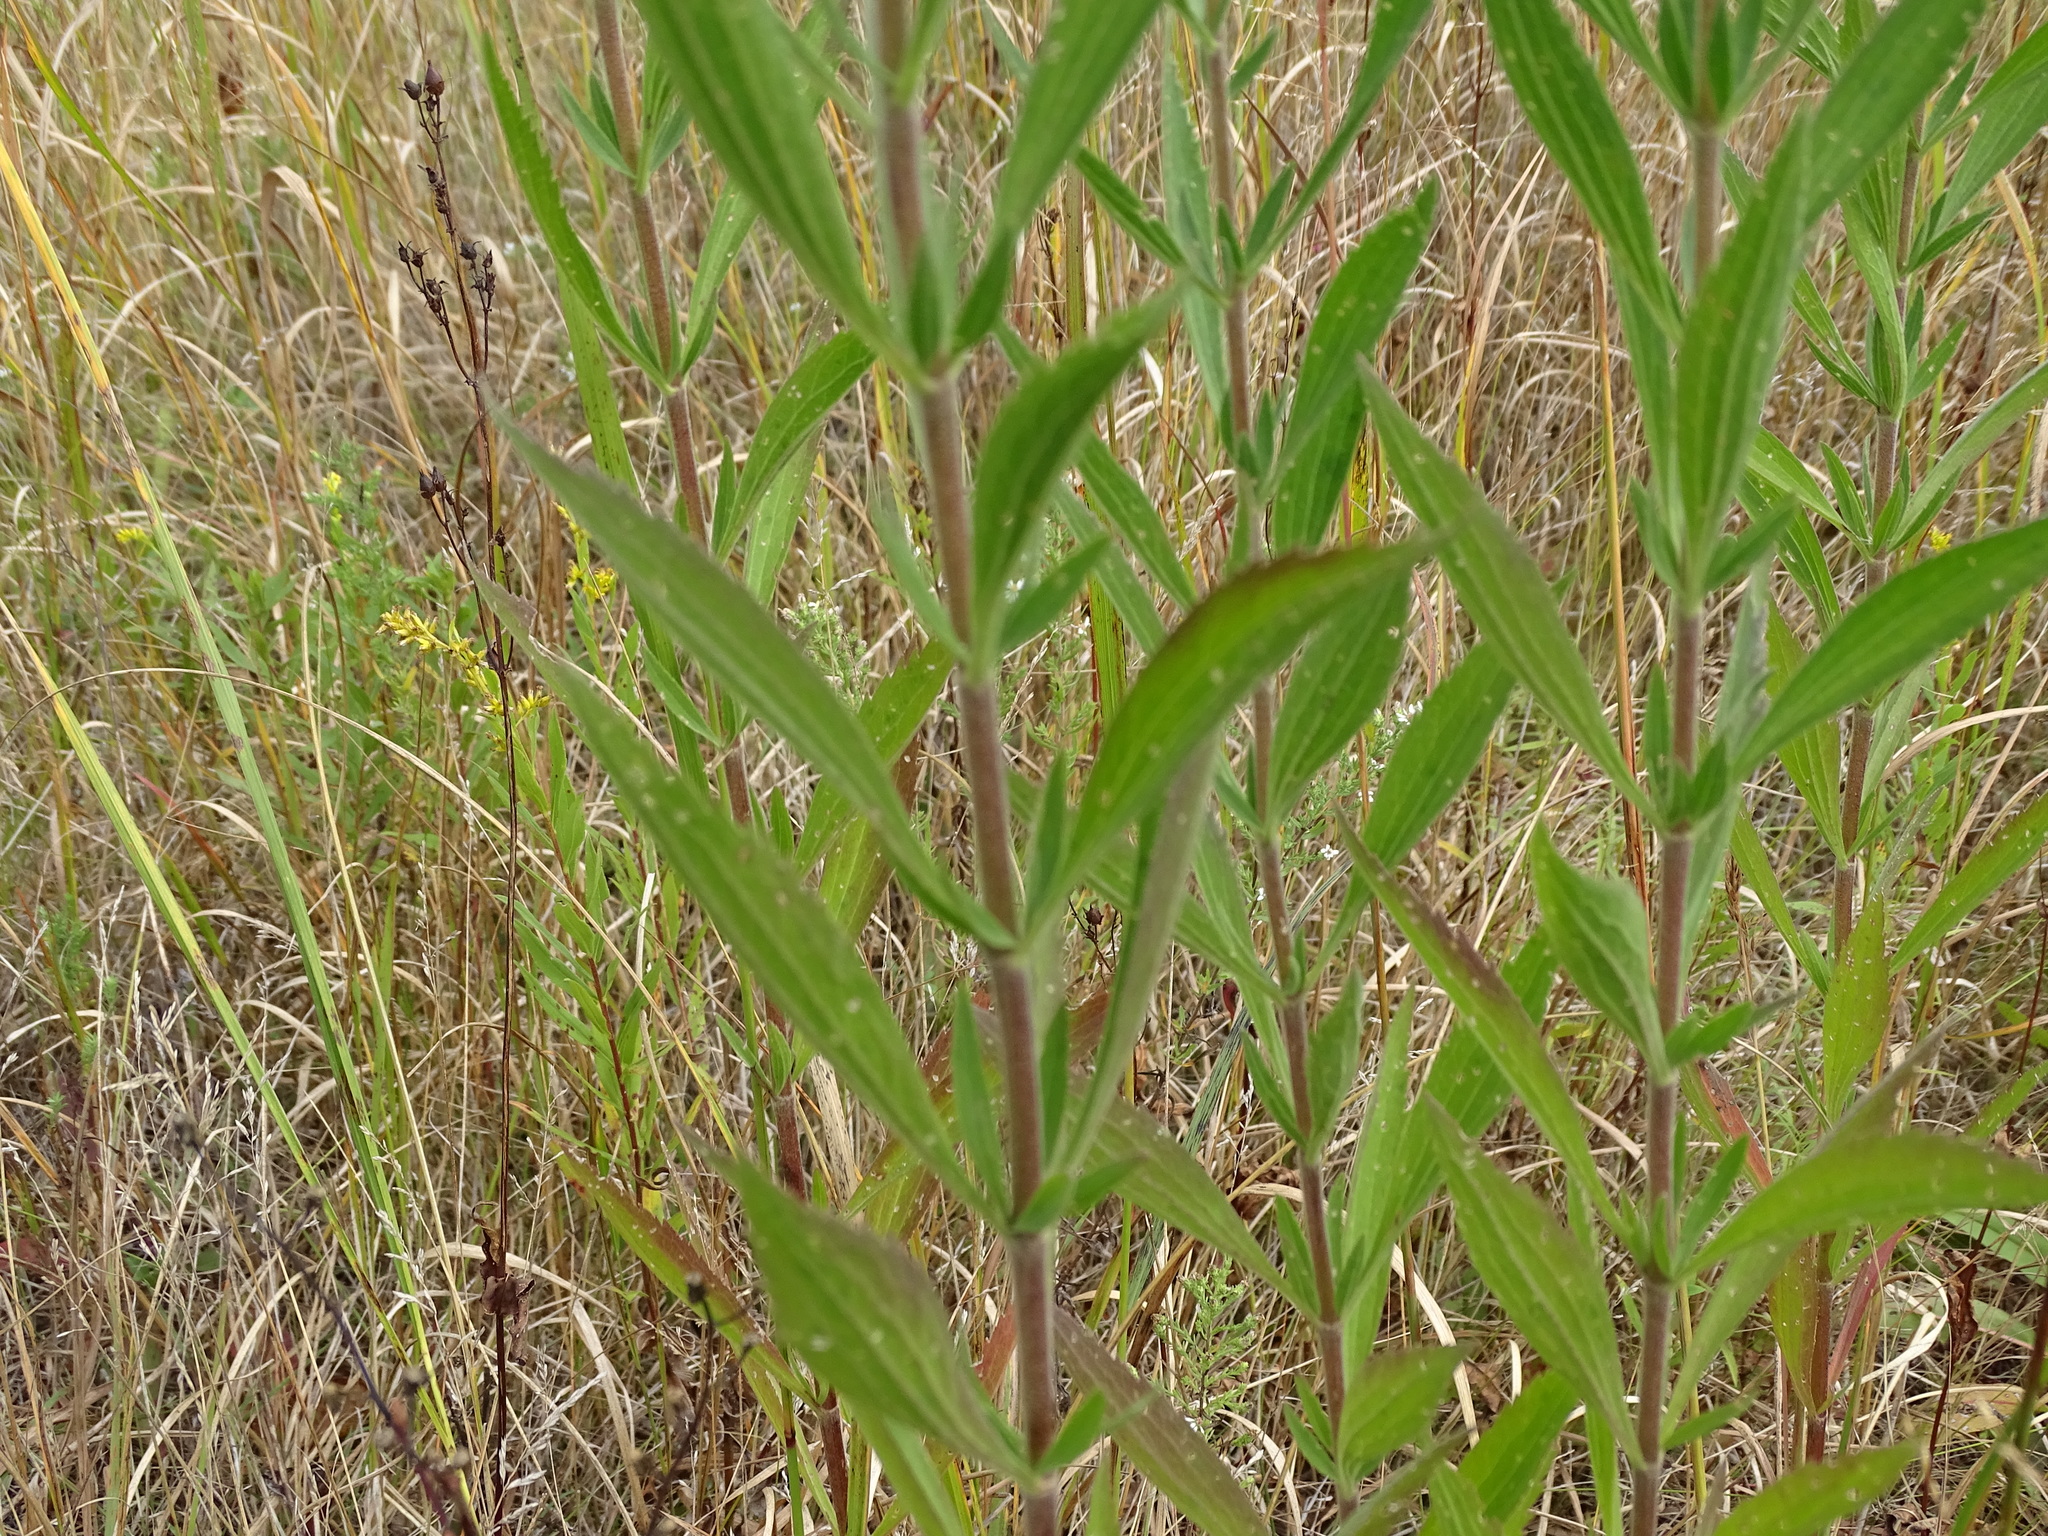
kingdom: Plantae
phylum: Tracheophyta
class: Magnoliopsida
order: Asterales
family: Asteraceae
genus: Eupatorium
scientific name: Eupatorium altissimum
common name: Tall thoroughwort
